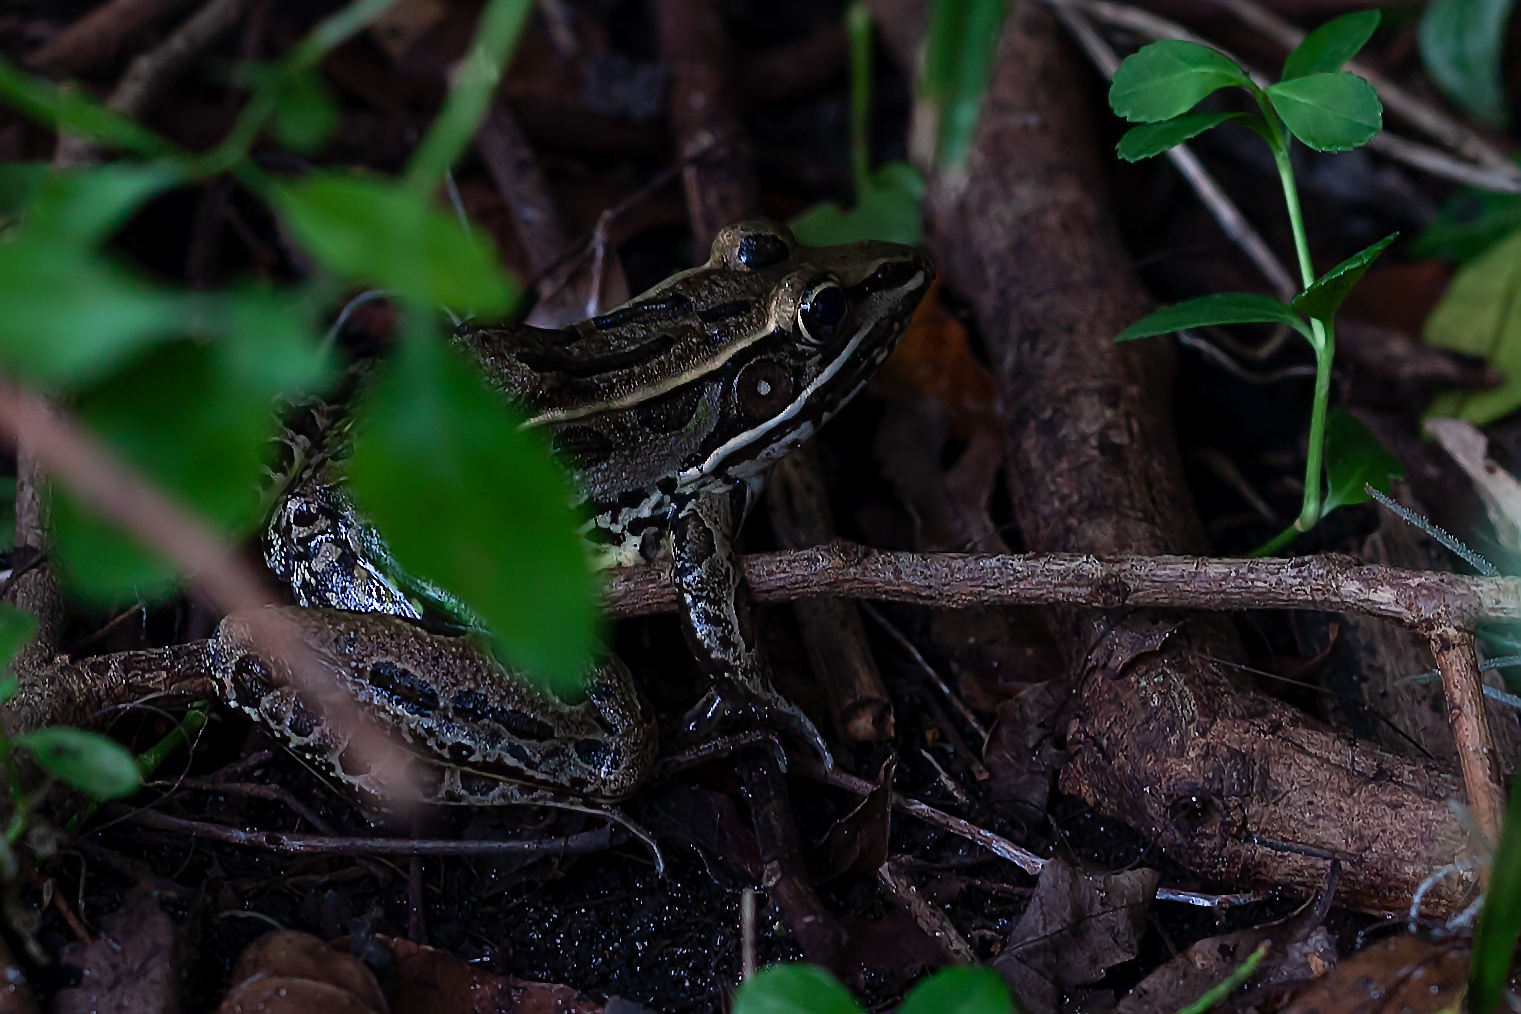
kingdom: Animalia
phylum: Chordata
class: Amphibia
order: Anura
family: Ranidae
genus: Lithobates
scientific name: Lithobates sphenocephalus
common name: Southern leopard frog
